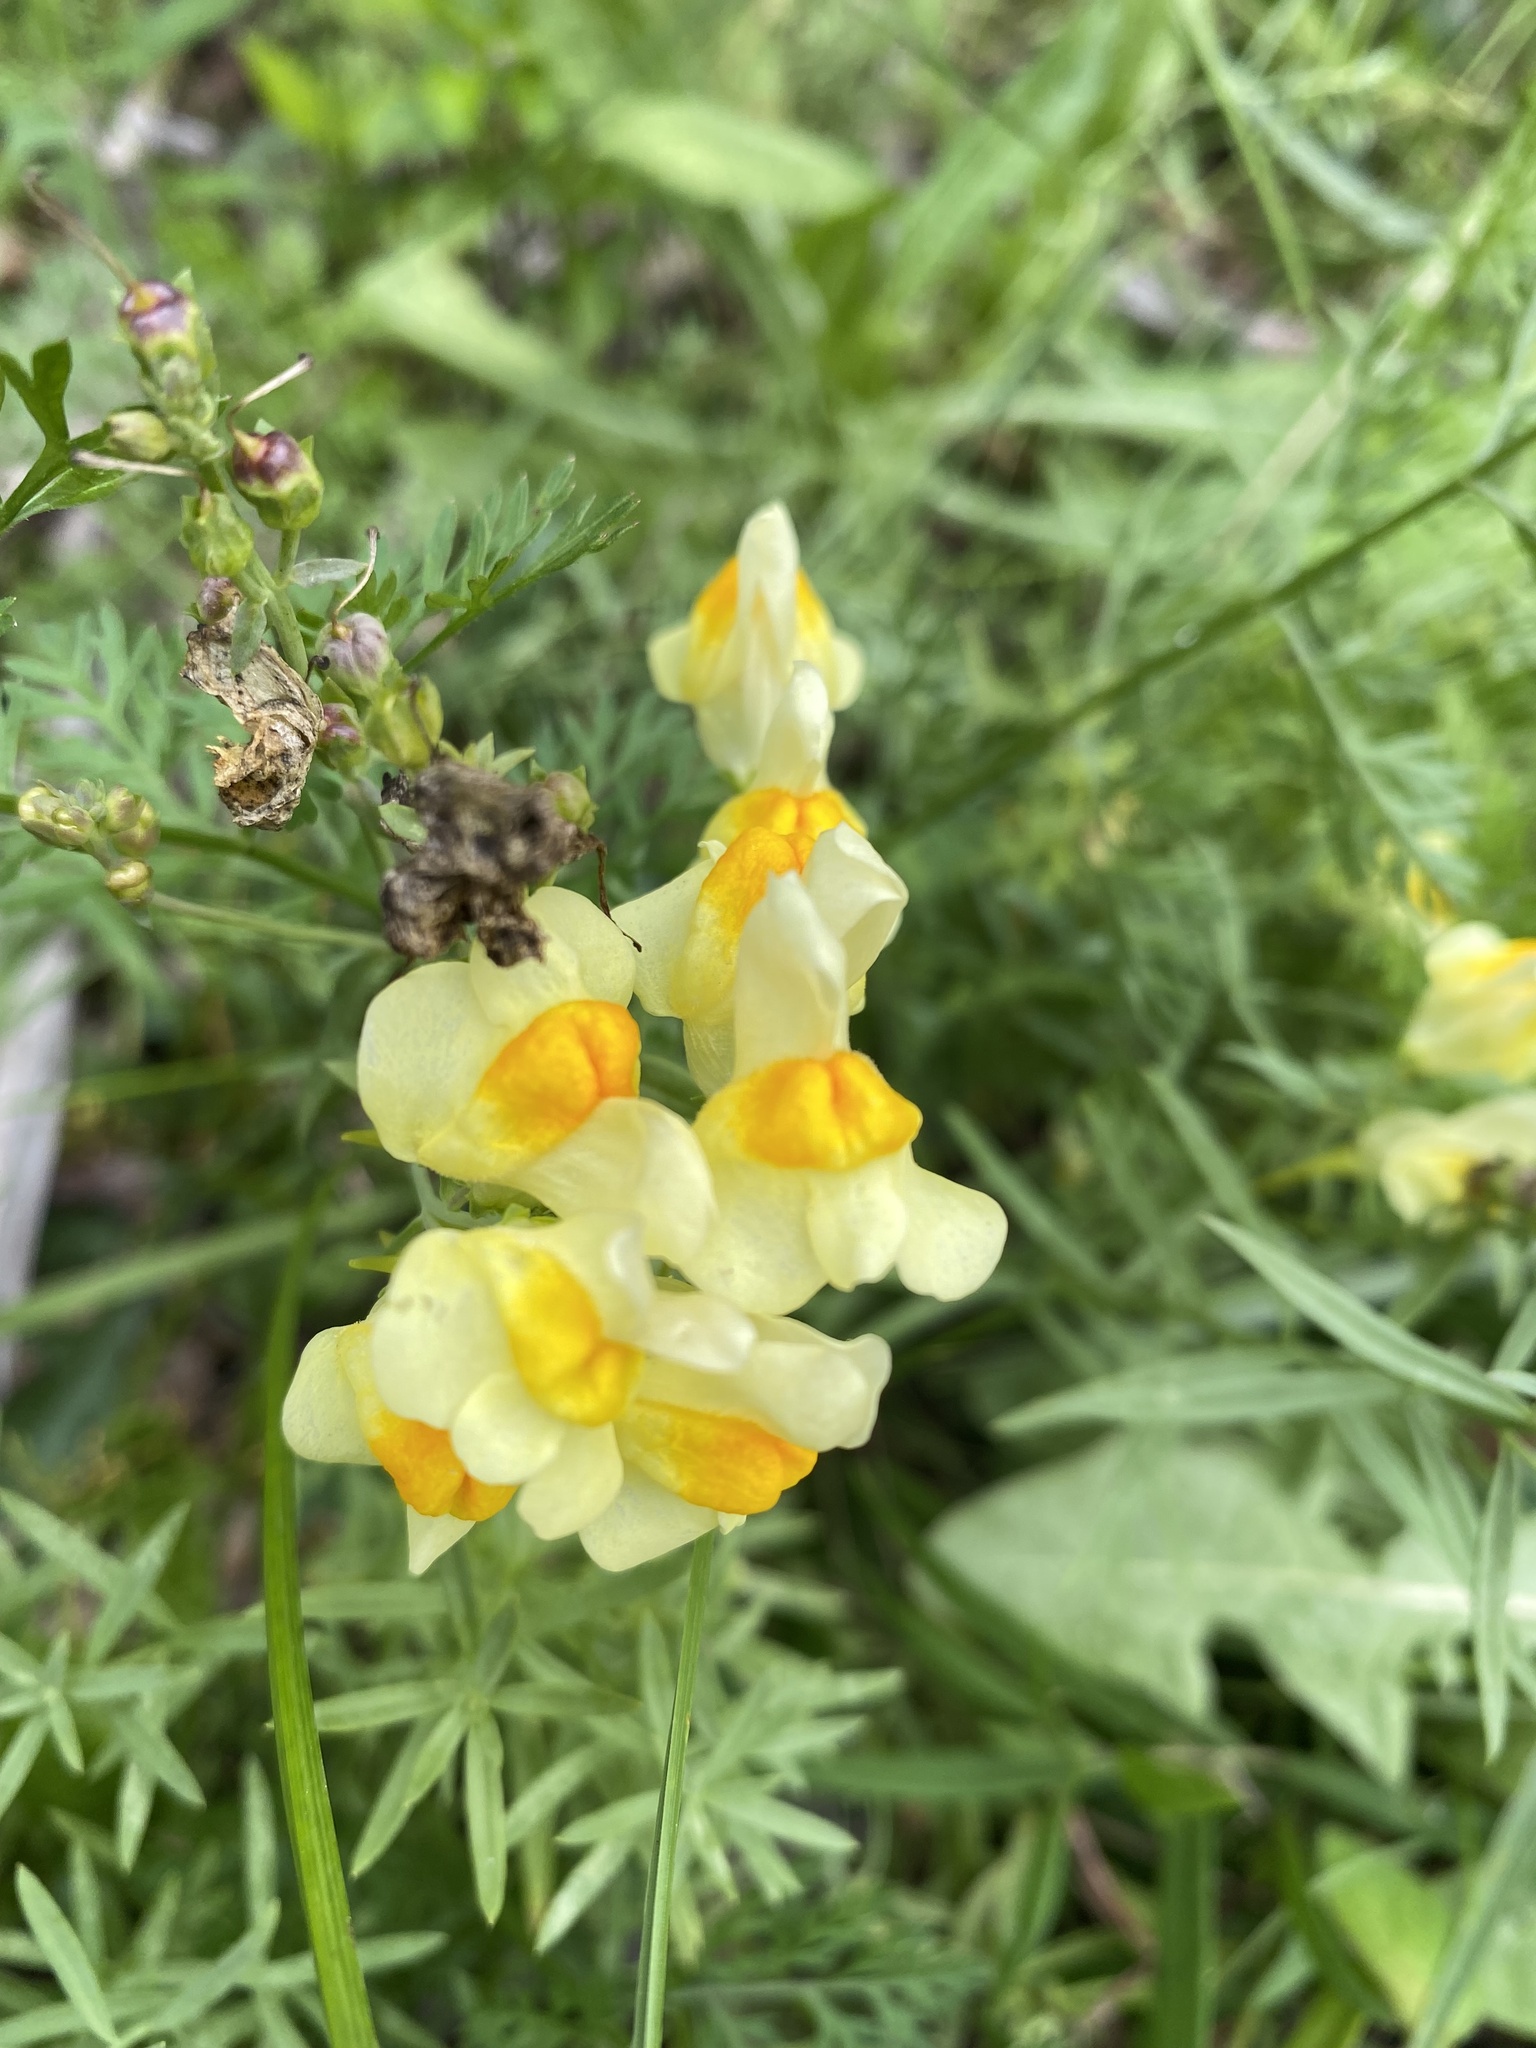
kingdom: Plantae
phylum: Tracheophyta
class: Magnoliopsida
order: Lamiales
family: Plantaginaceae
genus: Linaria
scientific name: Linaria vulgaris
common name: Butter and eggs
